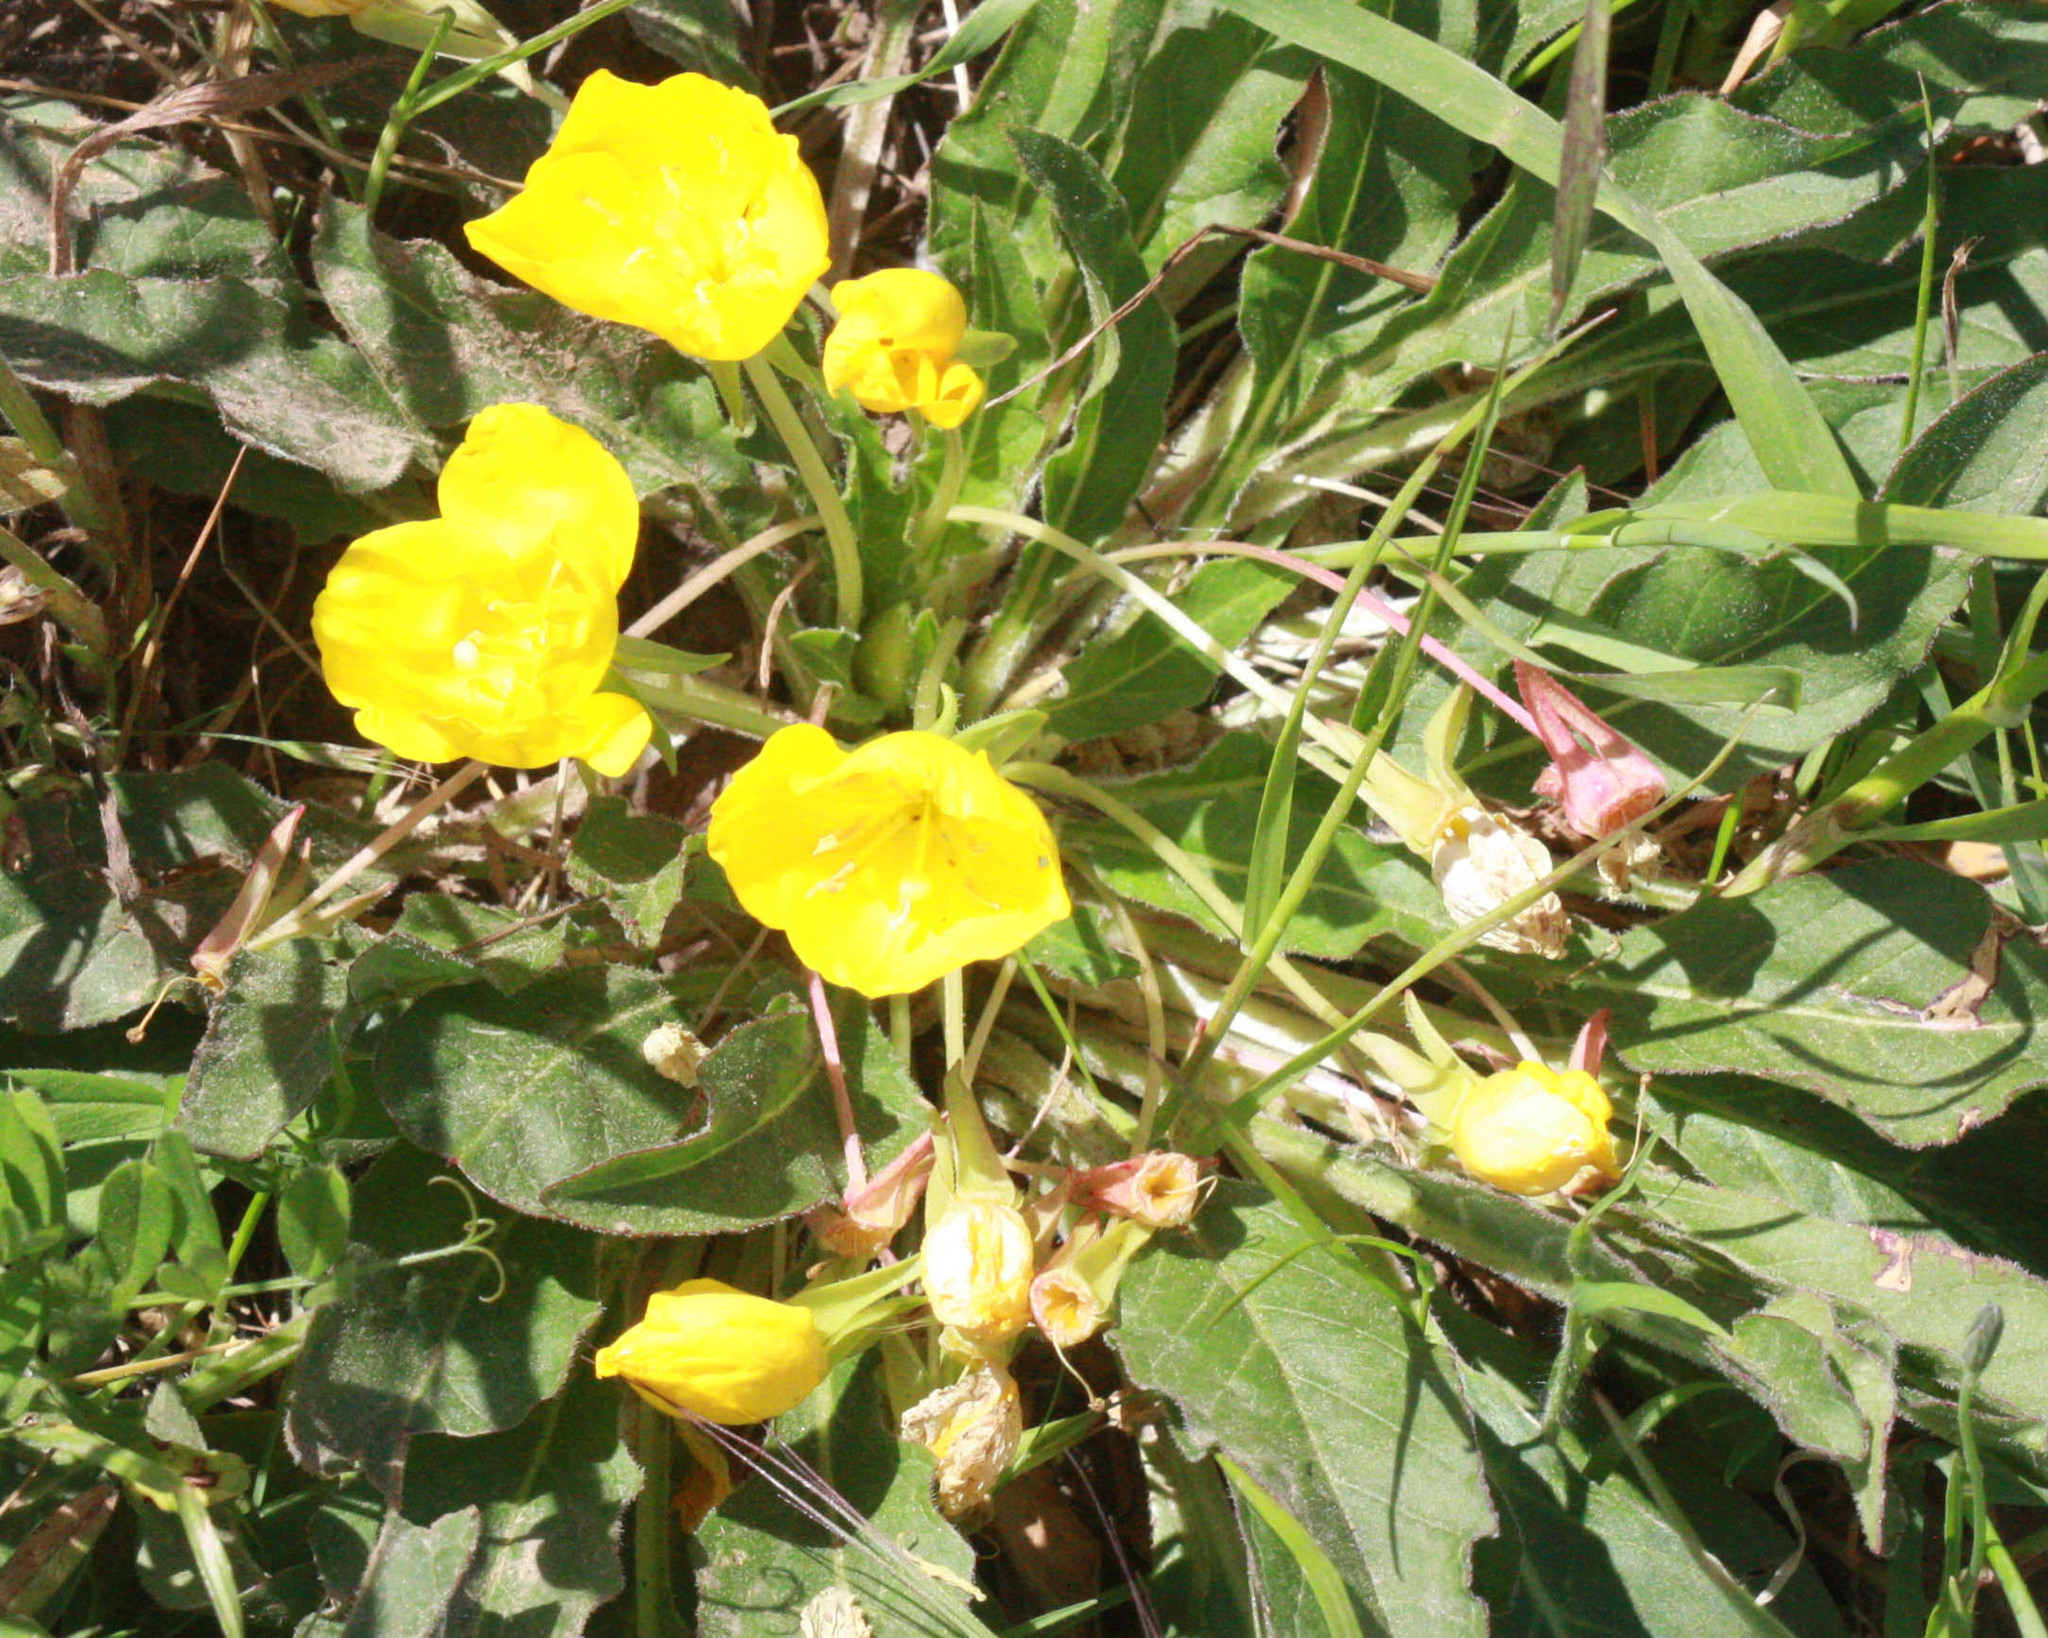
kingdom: Plantae
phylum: Tracheophyta
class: Magnoliopsida
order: Myrtales
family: Onagraceae
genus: Taraxia
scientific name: Taraxia ovata
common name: Goldeneggs
